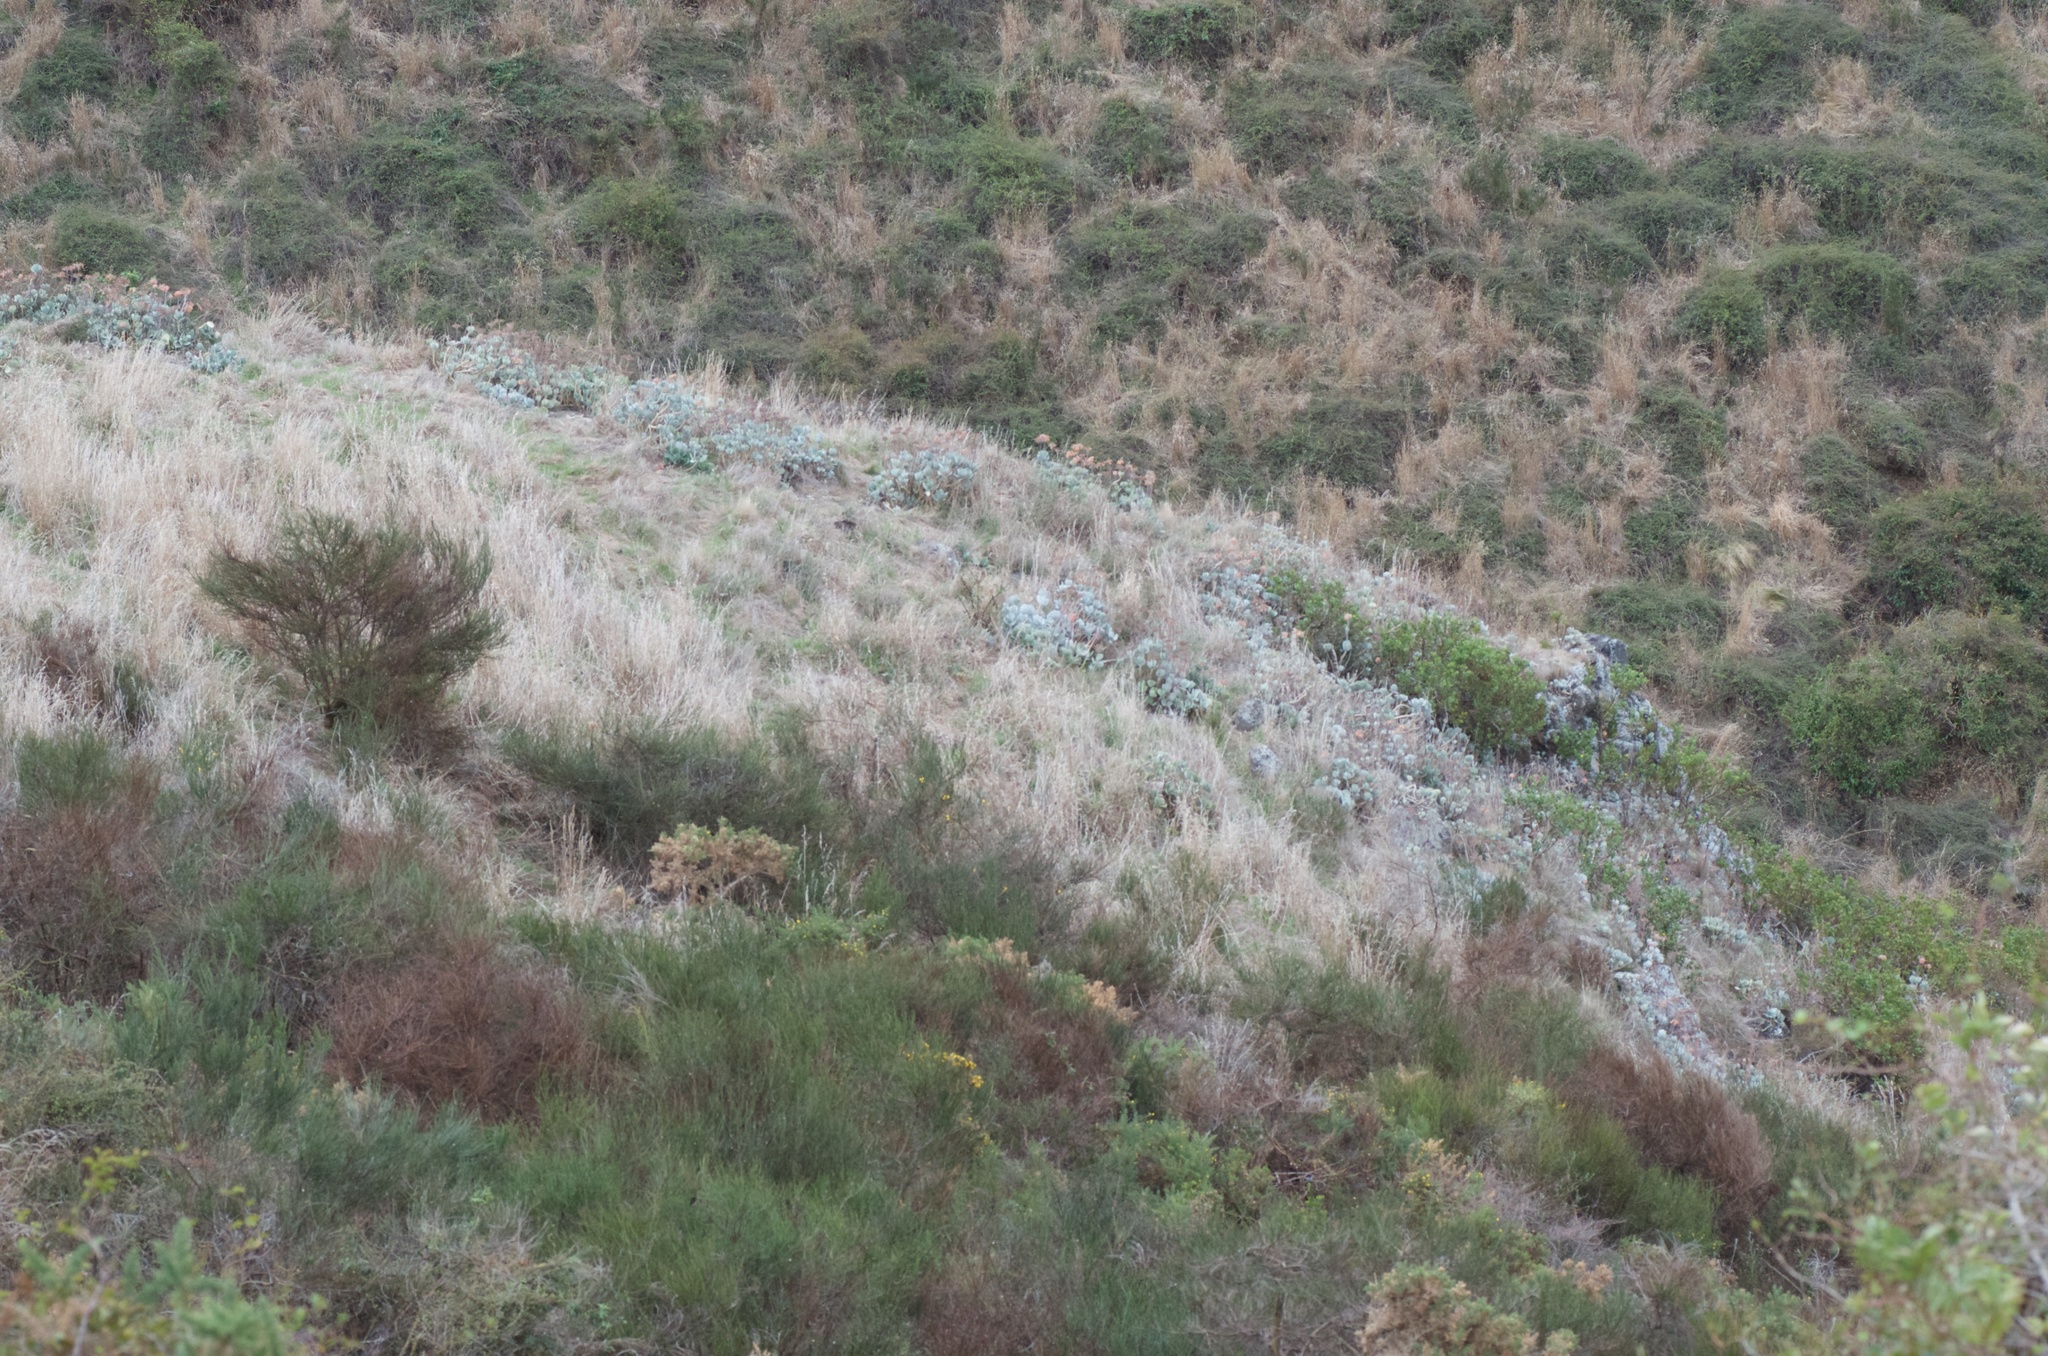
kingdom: Plantae
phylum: Tracheophyta
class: Magnoliopsida
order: Saxifragales
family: Crassulaceae
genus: Cotyledon
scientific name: Cotyledon orbiculata
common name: Pig's ear
